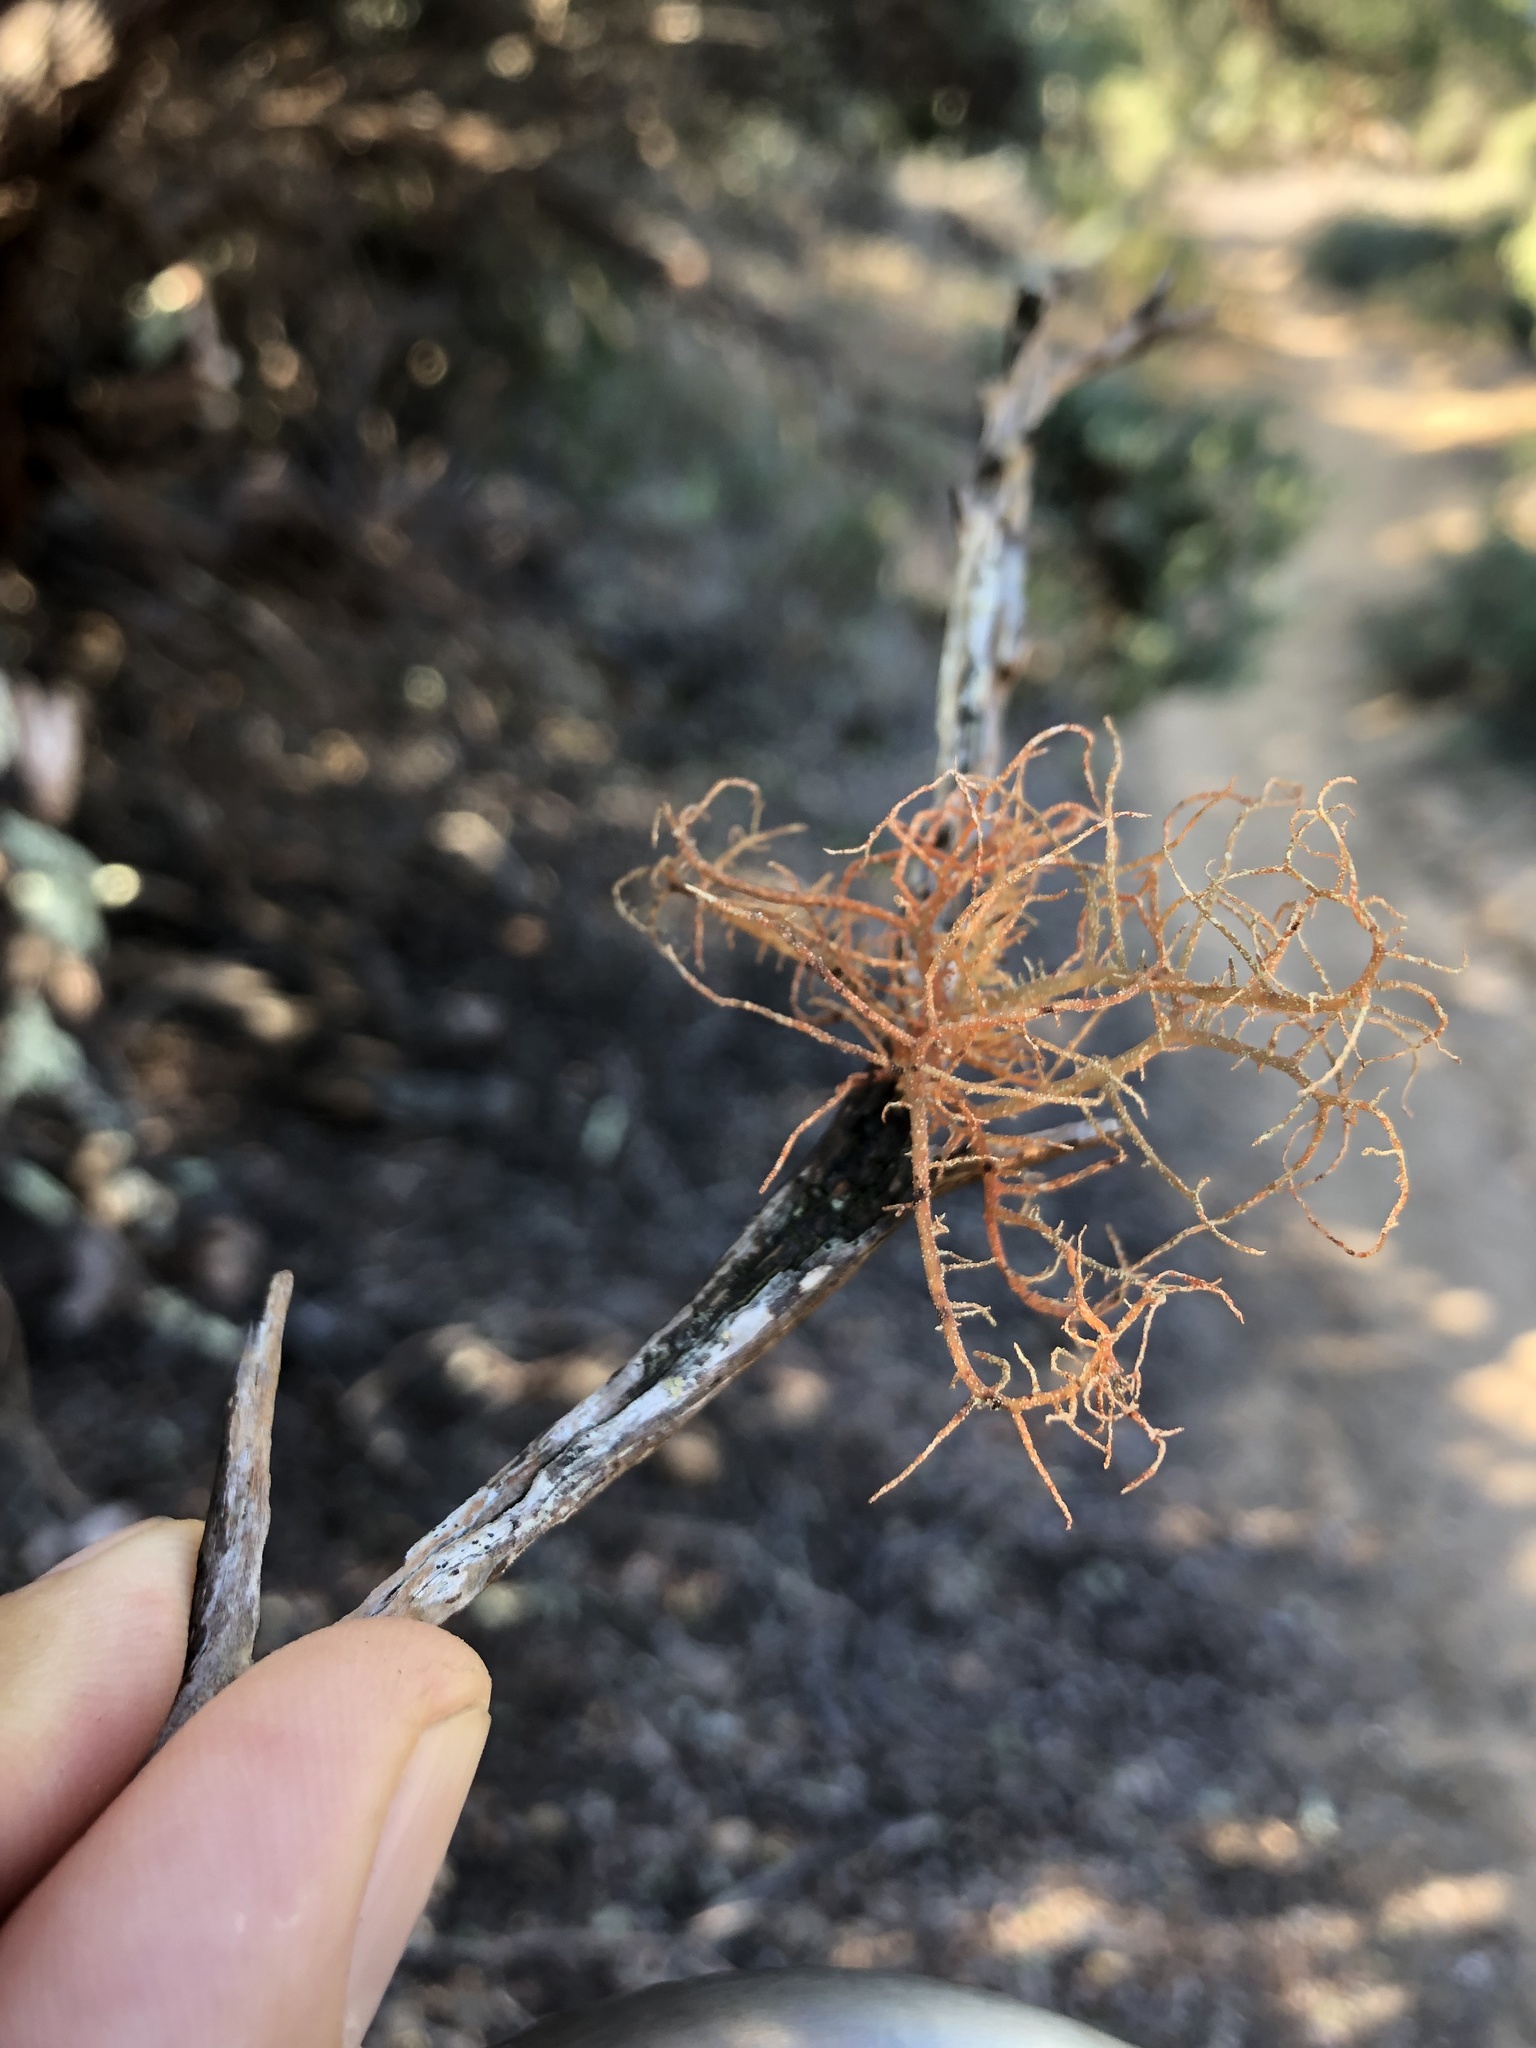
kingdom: Fungi
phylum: Ascomycota
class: Lecanoromycetes
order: Lecanorales
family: Parmeliaceae
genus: Usnea
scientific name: Usnea rubicunda
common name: Red beard lichen
